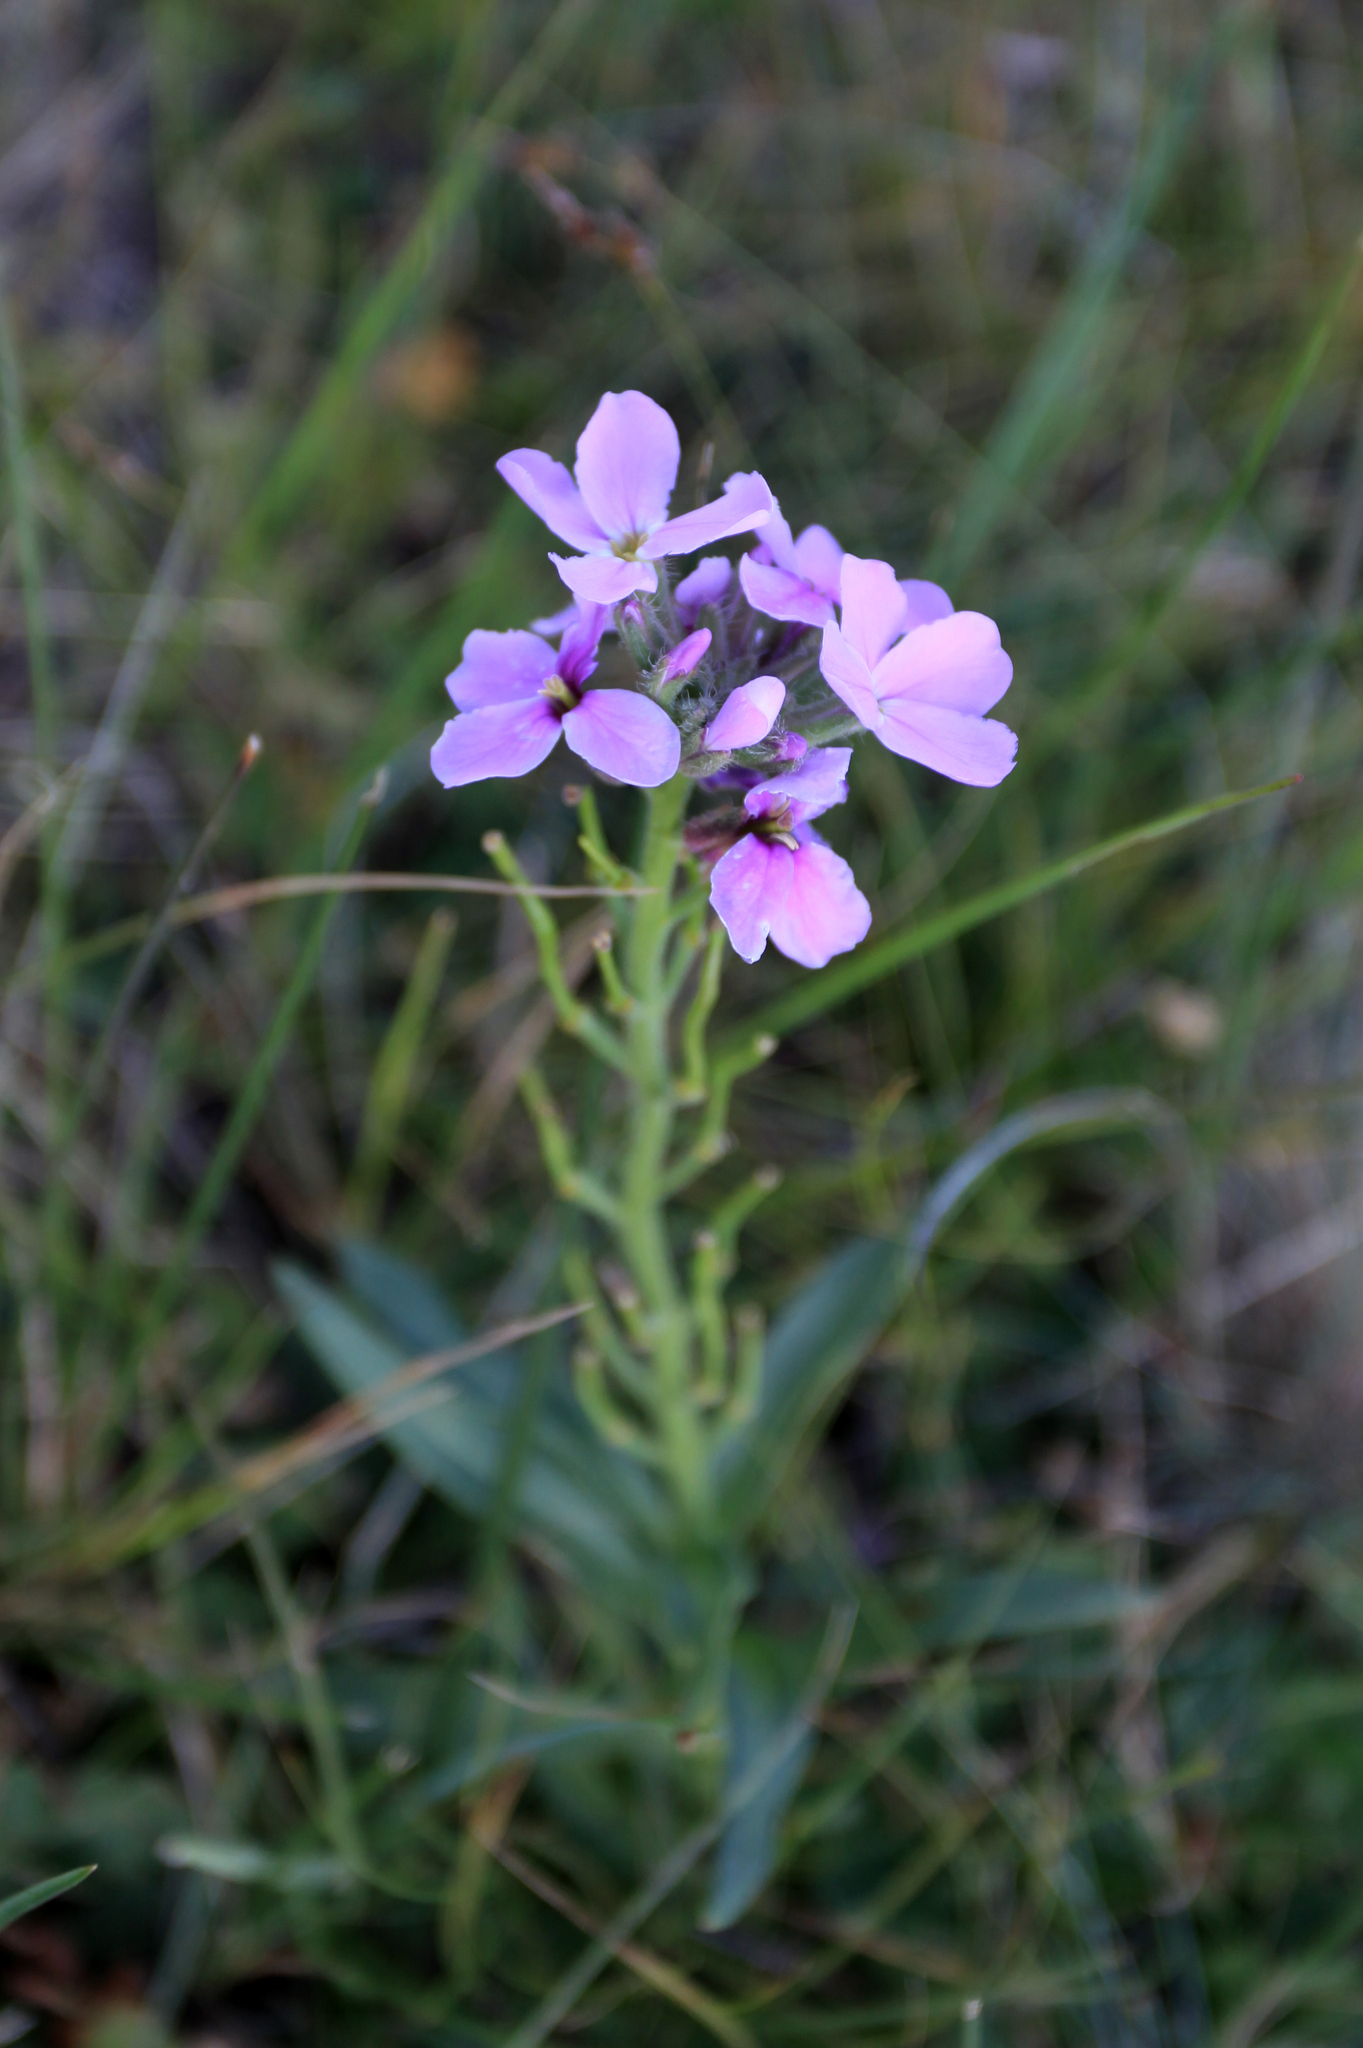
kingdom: Plantae
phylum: Tracheophyta
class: Magnoliopsida
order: Brassicales
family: Brassicaceae
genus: Clausia
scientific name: Clausia aprica
